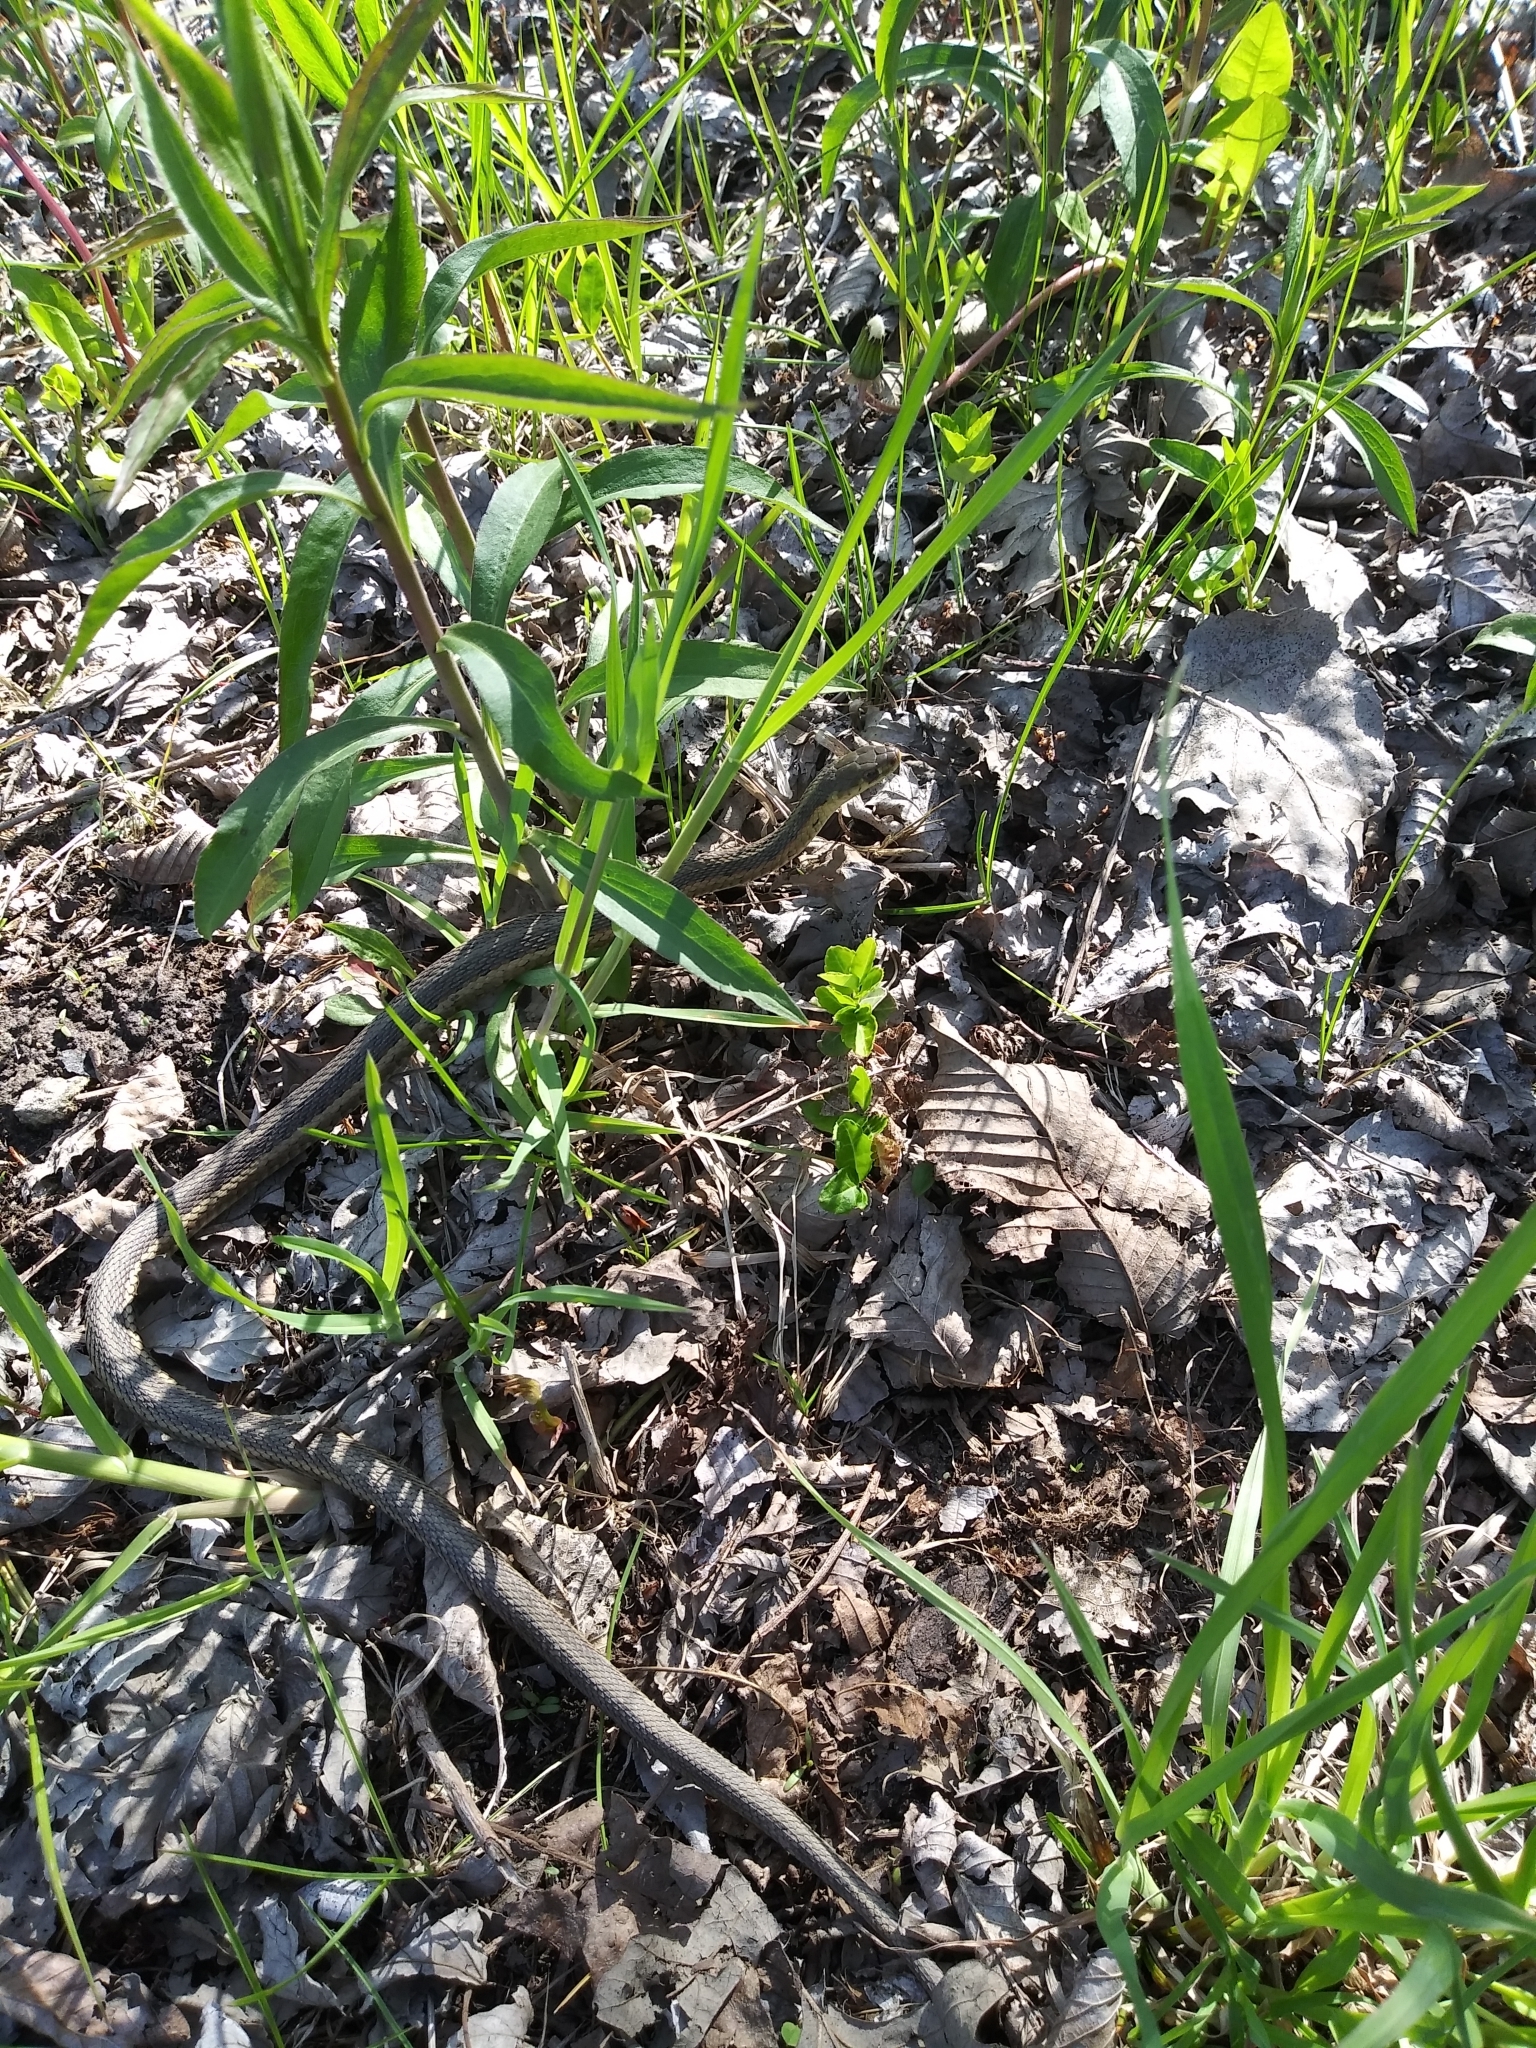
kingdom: Animalia
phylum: Chordata
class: Squamata
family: Colubridae
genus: Thamnophis
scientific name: Thamnophis sirtalis
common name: Common garter snake
